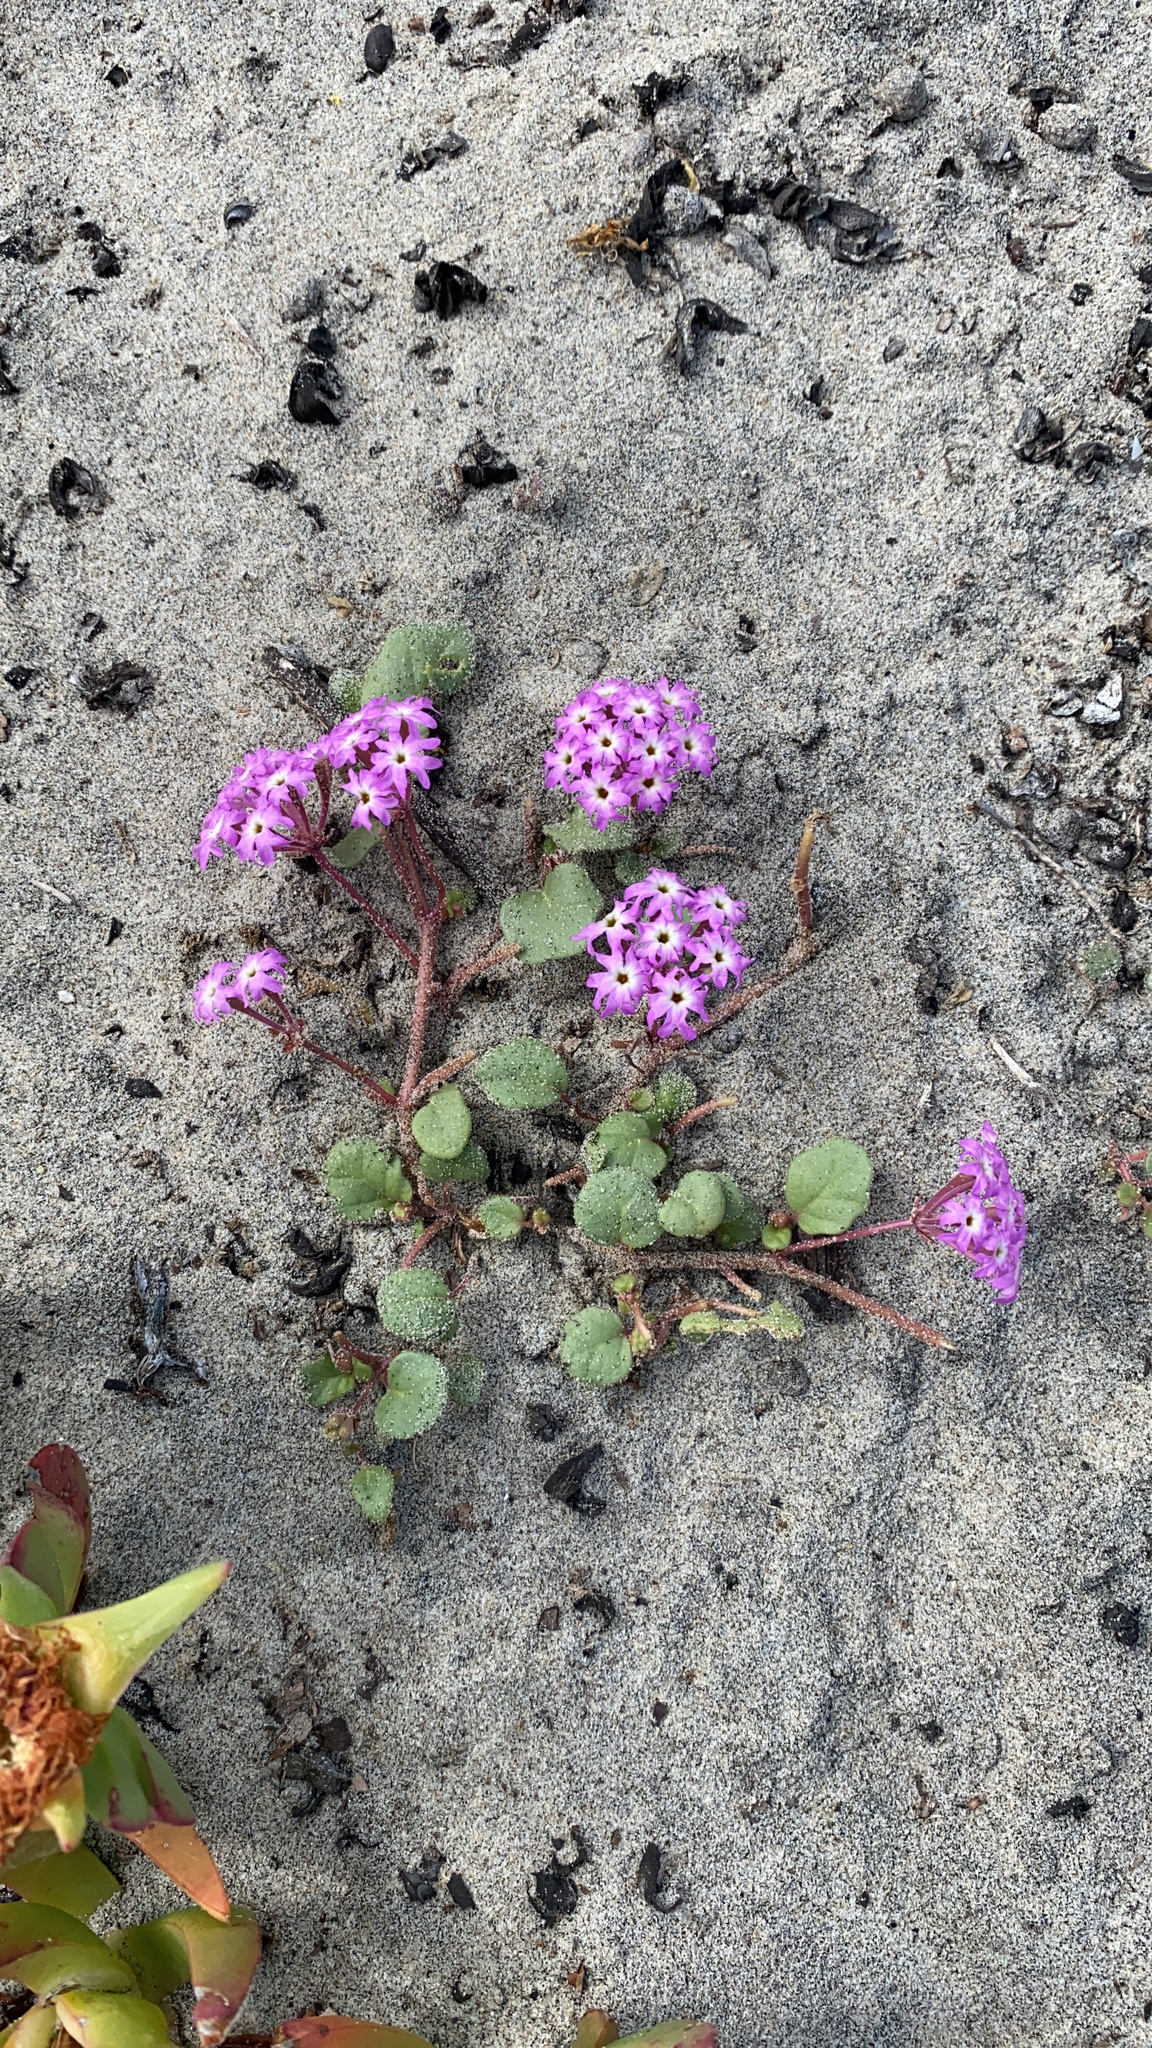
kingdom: Plantae
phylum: Tracheophyta
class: Magnoliopsida
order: Caryophyllales
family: Nyctaginaceae
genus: Abronia
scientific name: Abronia umbellata
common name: Sand-verbena
